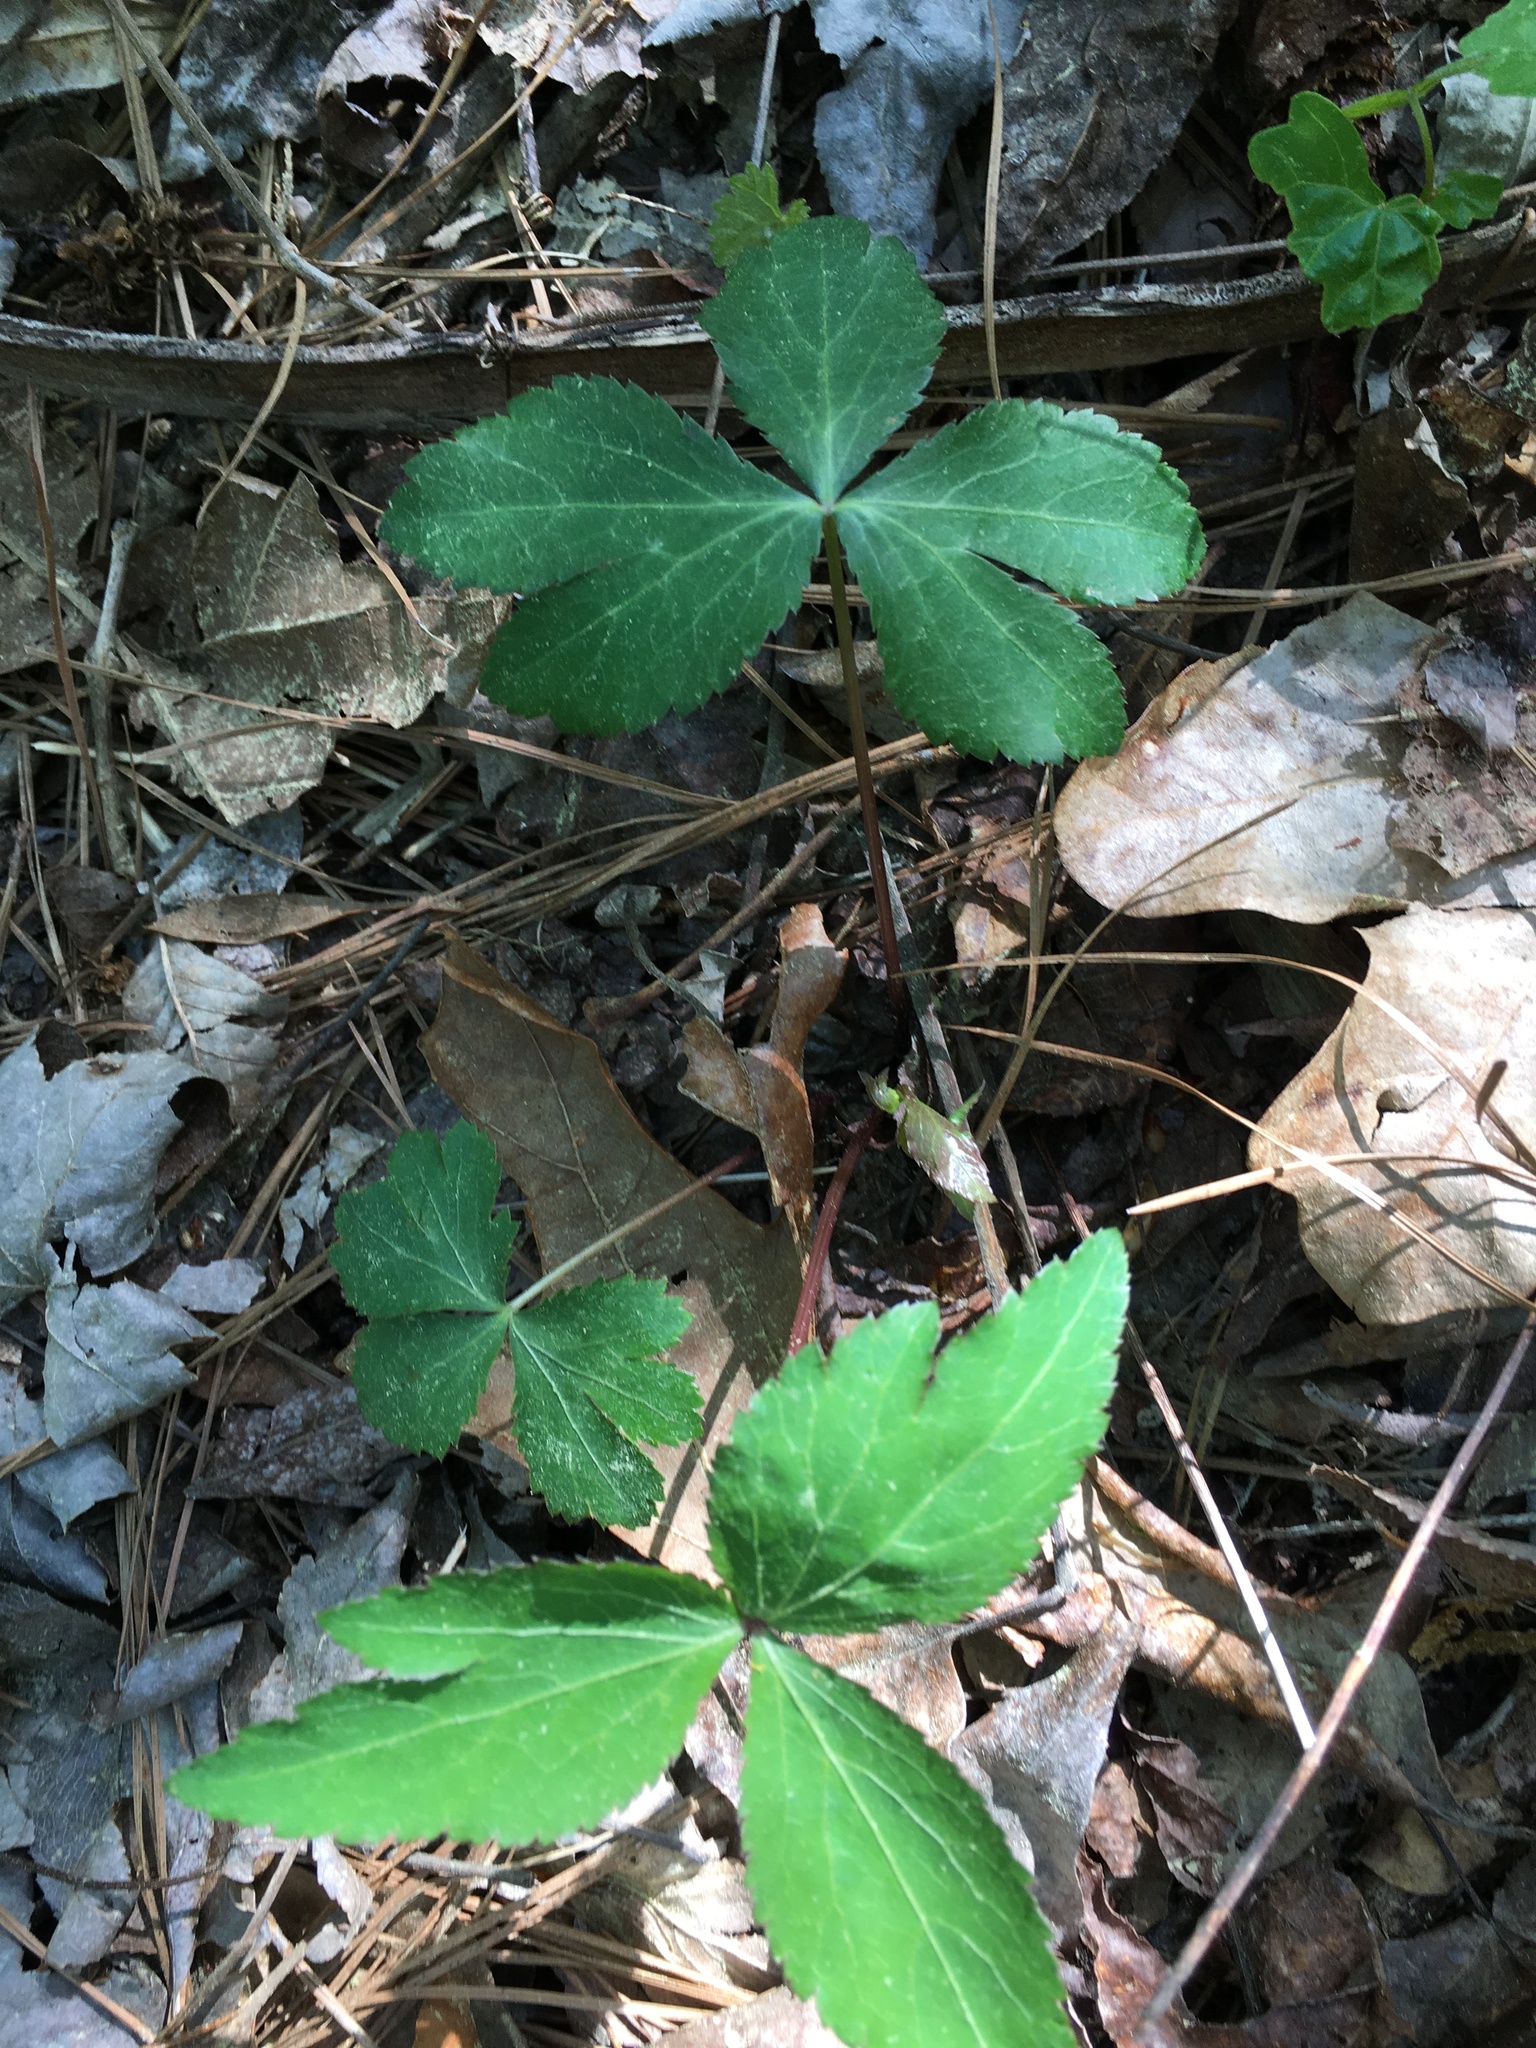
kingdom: Plantae
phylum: Tracheophyta
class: Magnoliopsida
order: Apiales
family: Apiaceae
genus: Sanicula
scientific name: Sanicula smallii
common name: Small's black snakeroot
